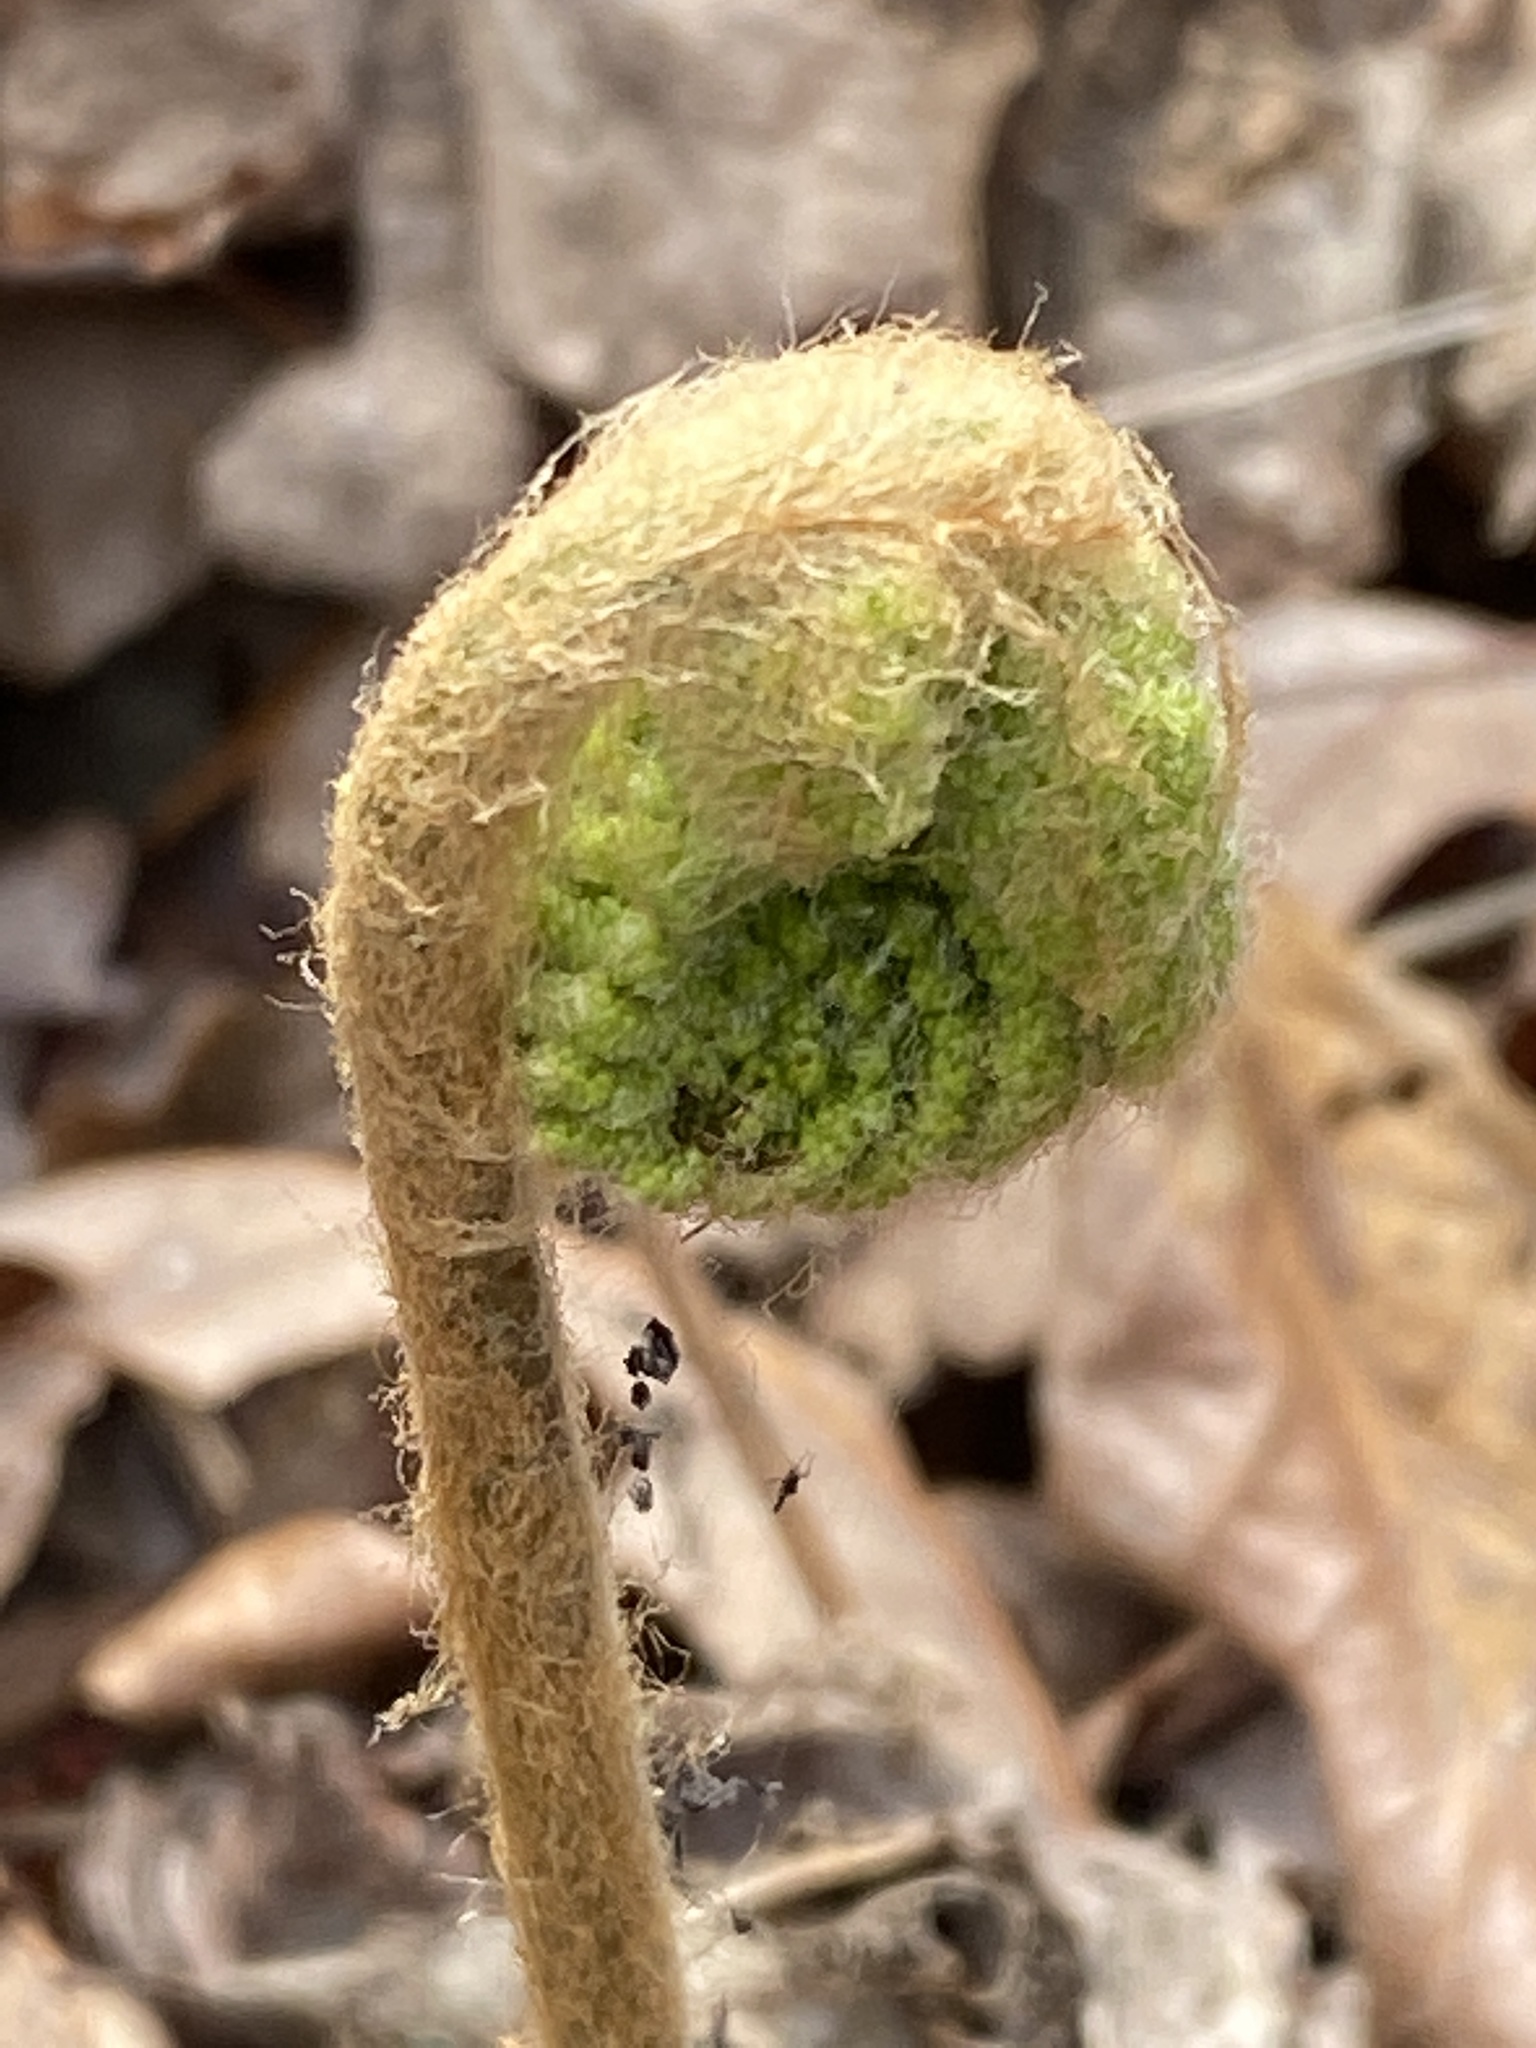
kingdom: Plantae
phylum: Tracheophyta
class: Polypodiopsida
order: Osmundales
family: Osmundaceae
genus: Osmundastrum
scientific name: Osmundastrum cinnamomeum
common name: Cinnamon fern
